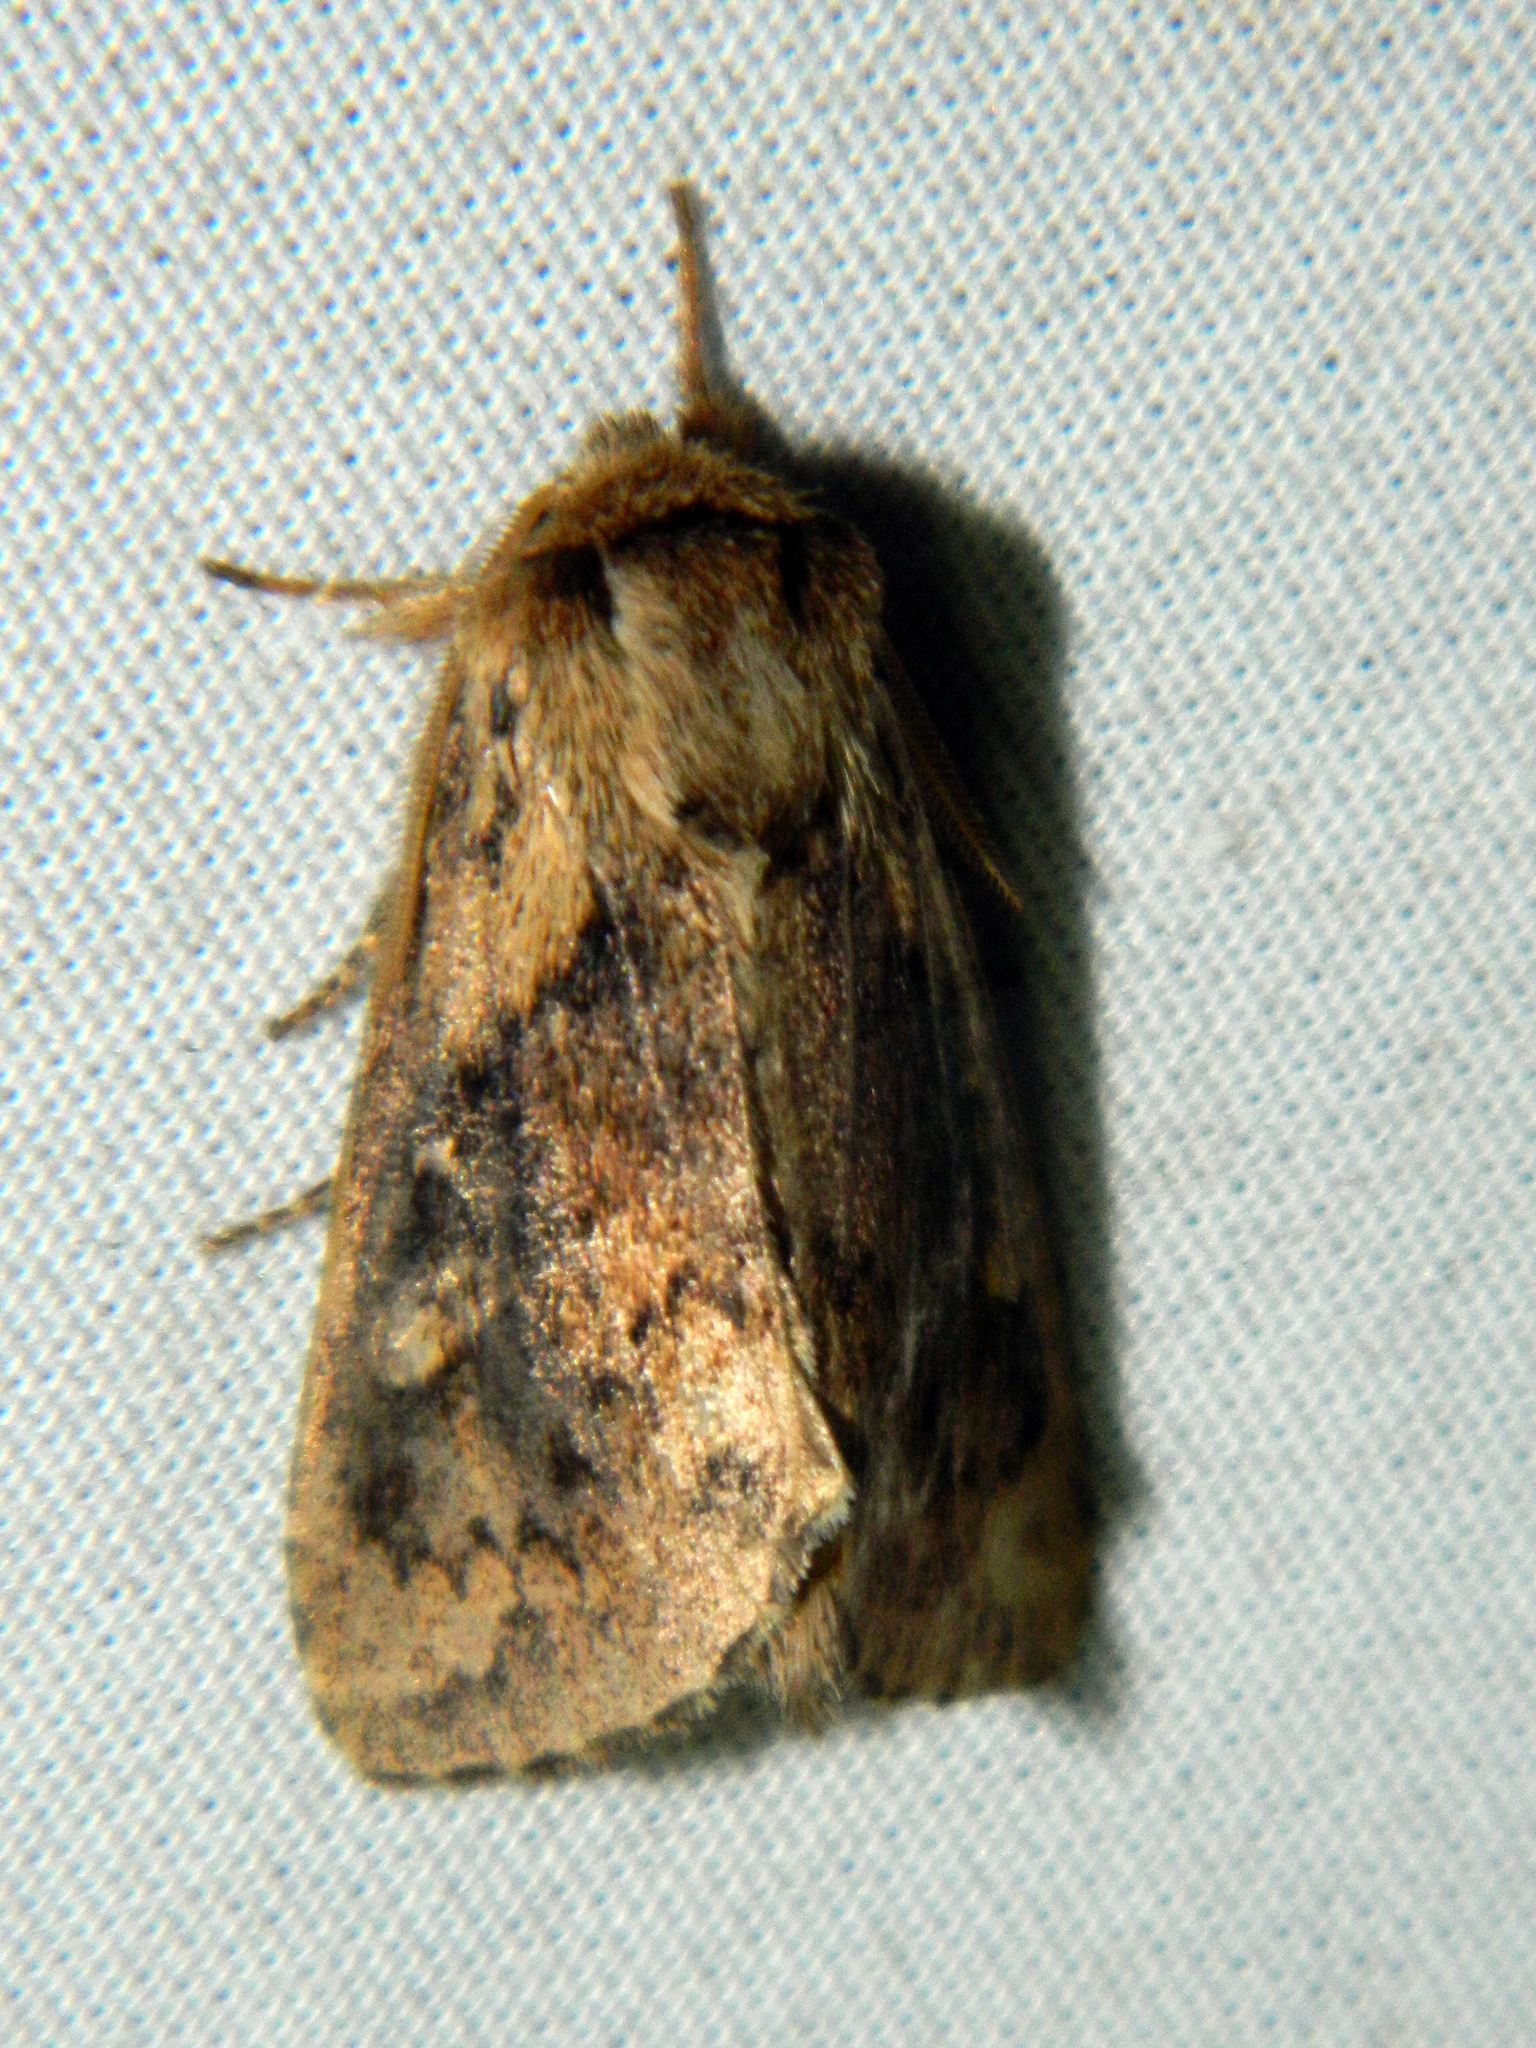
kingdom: Animalia
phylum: Arthropoda
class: Insecta
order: Lepidoptera
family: Noctuidae
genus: Bellura
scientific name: Bellura vulnifica
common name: Black-tailed diver moth
